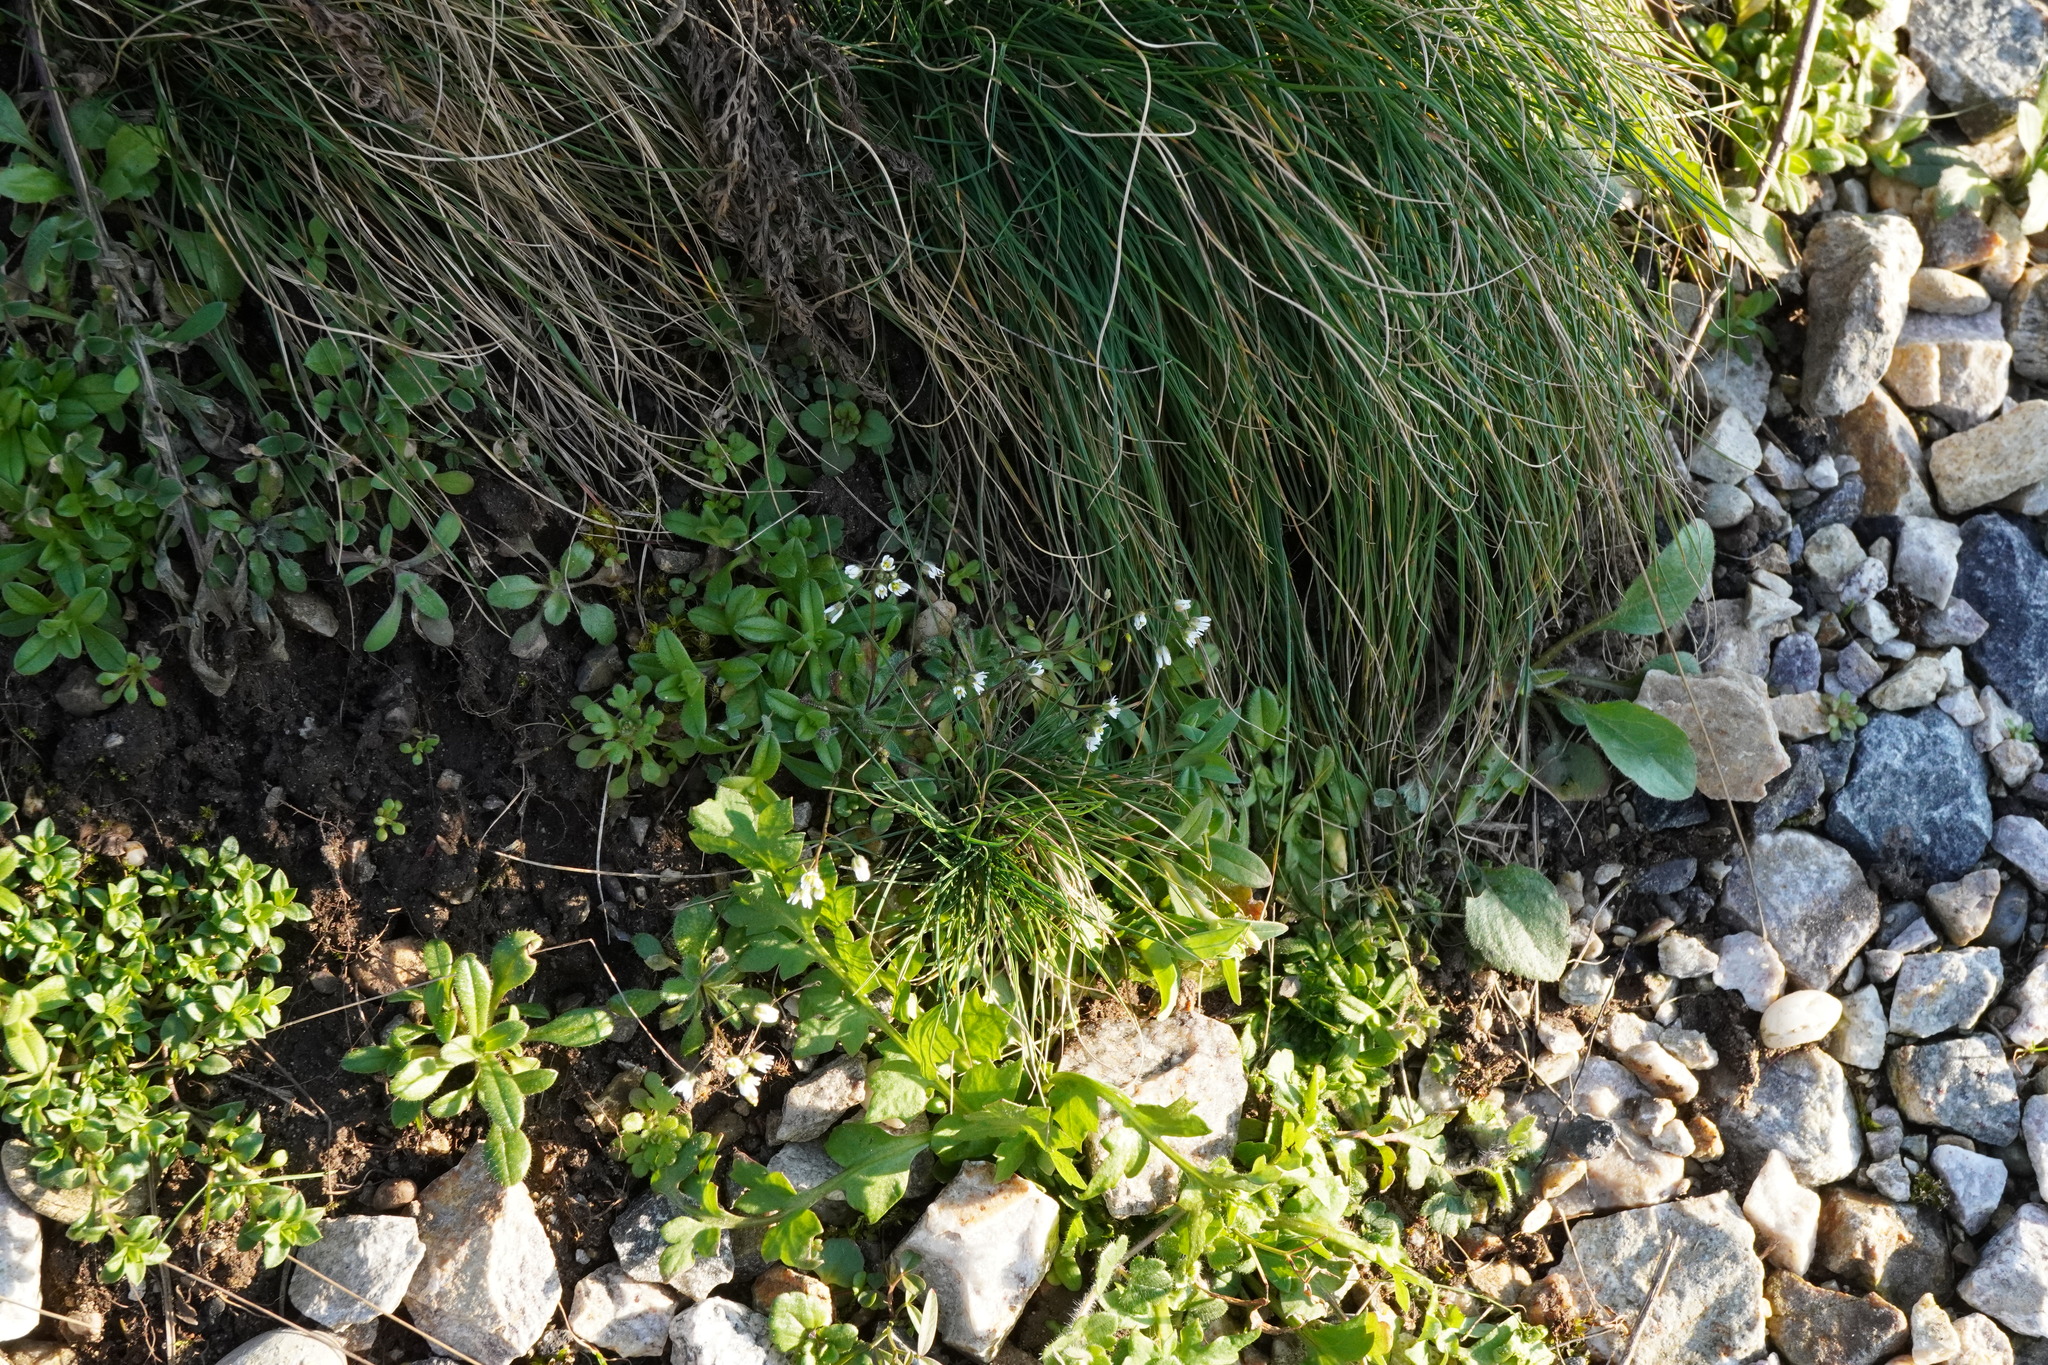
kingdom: Plantae
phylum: Tracheophyta
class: Magnoliopsida
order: Brassicales
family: Brassicaceae
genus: Draba
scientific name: Draba verna
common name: Spring draba
